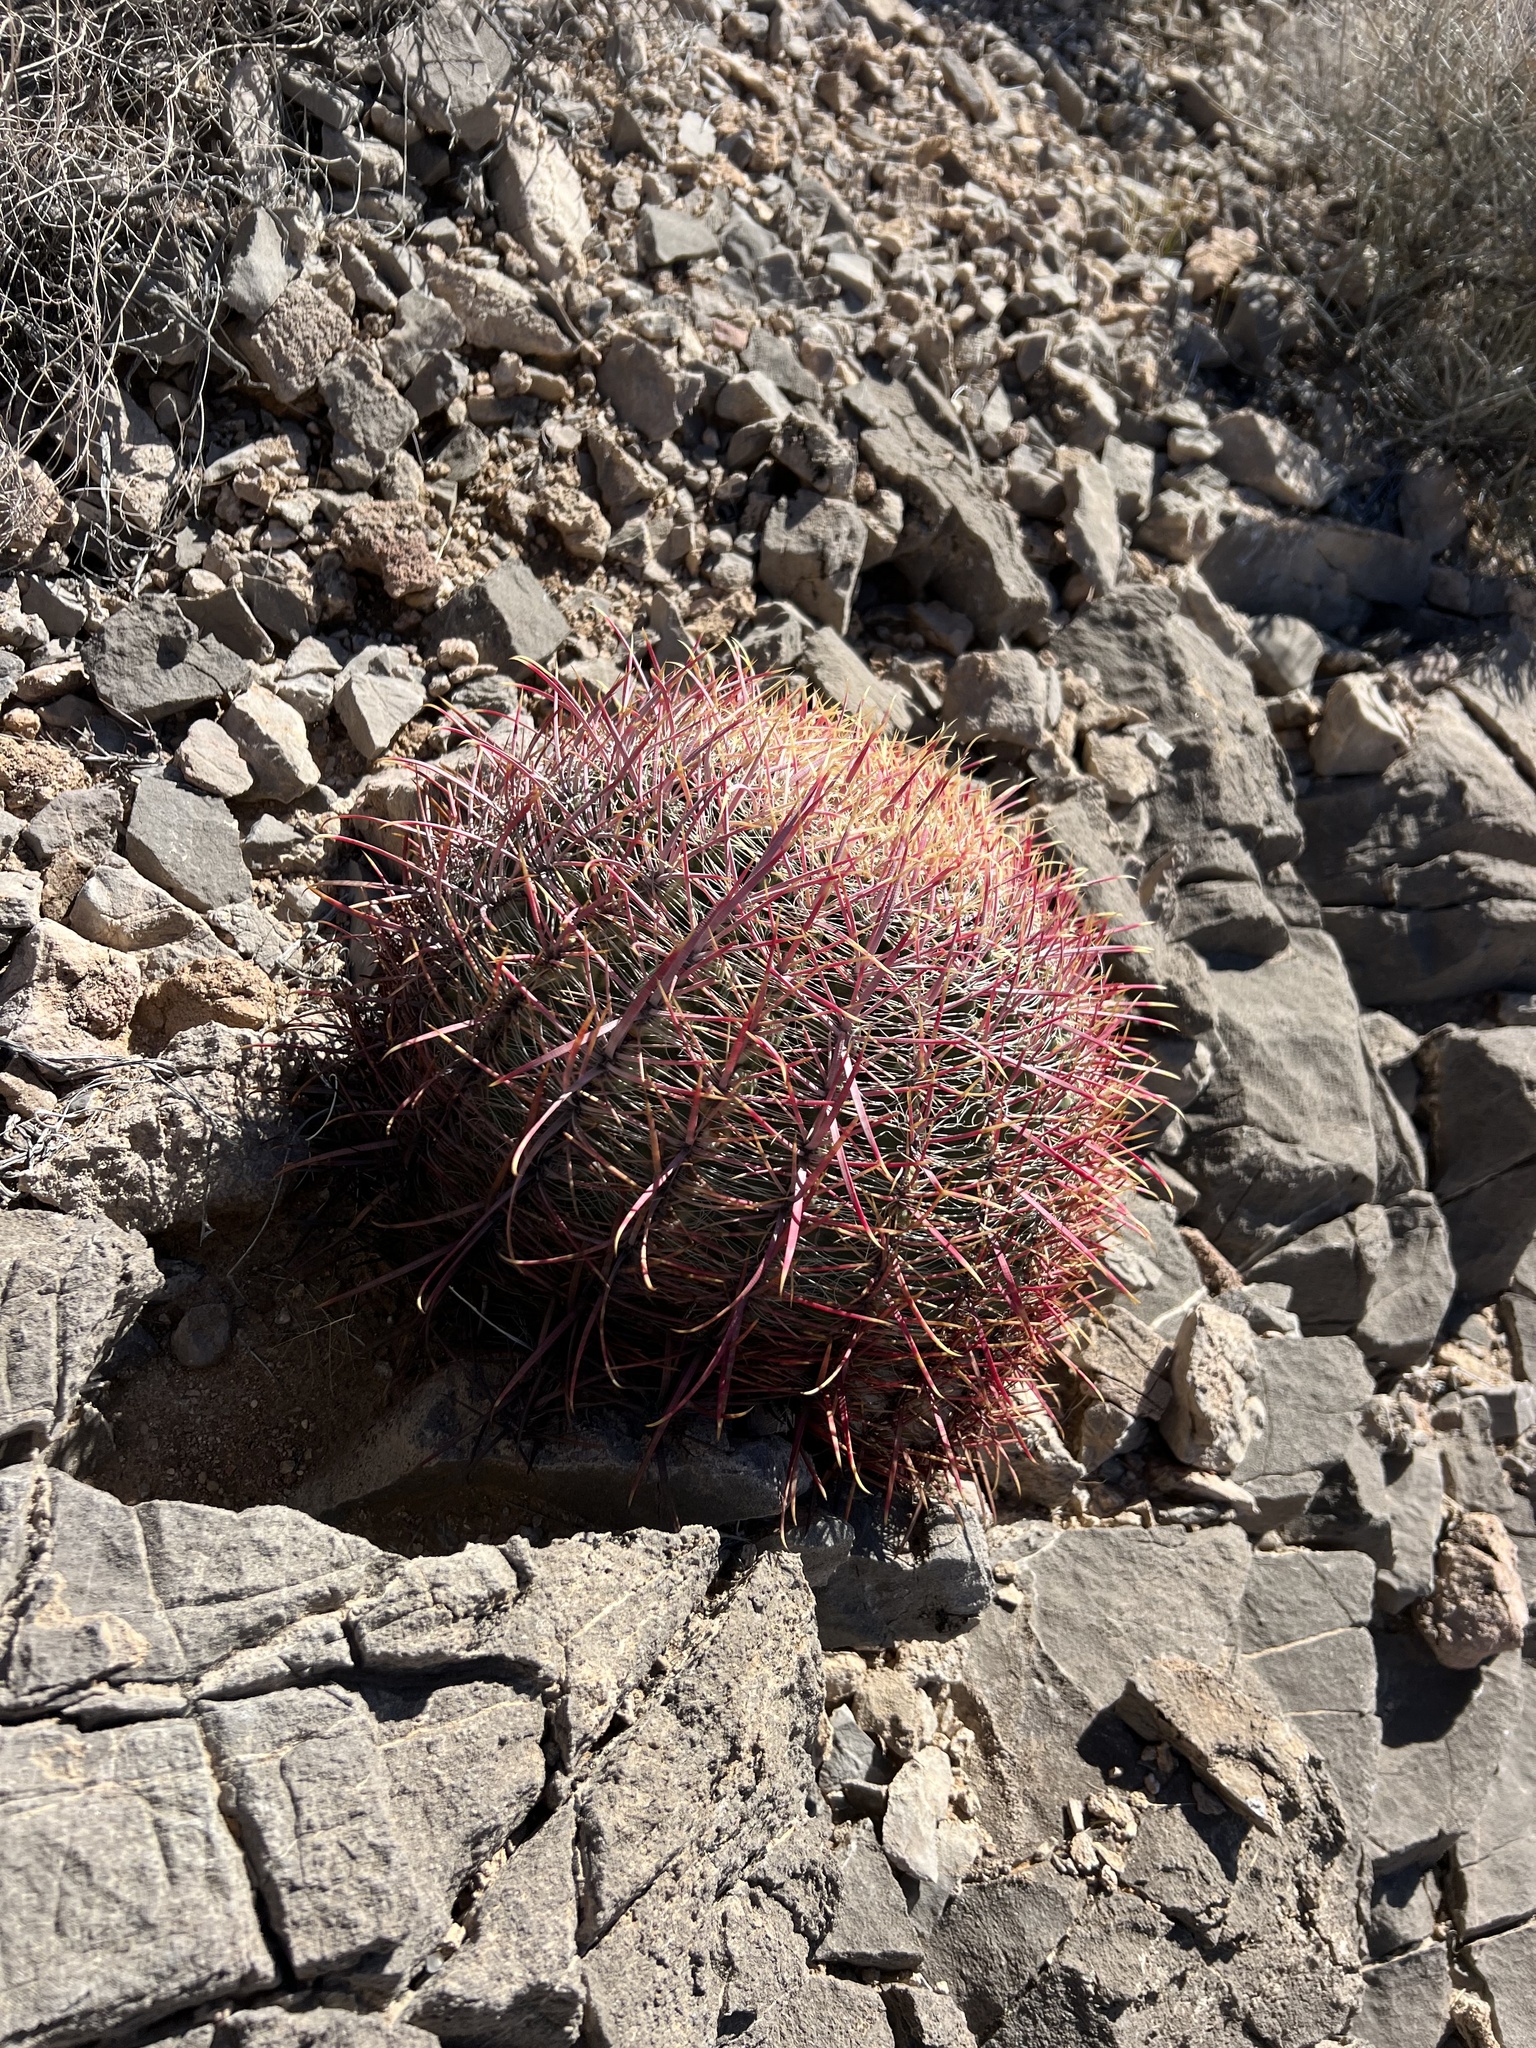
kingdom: Plantae
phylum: Tracheophyta
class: Magnoliopsida
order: Caryophyllales
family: Cactaceae
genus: Ferocactus
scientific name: Ferocactus cylindraceus
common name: California barrel cactus
